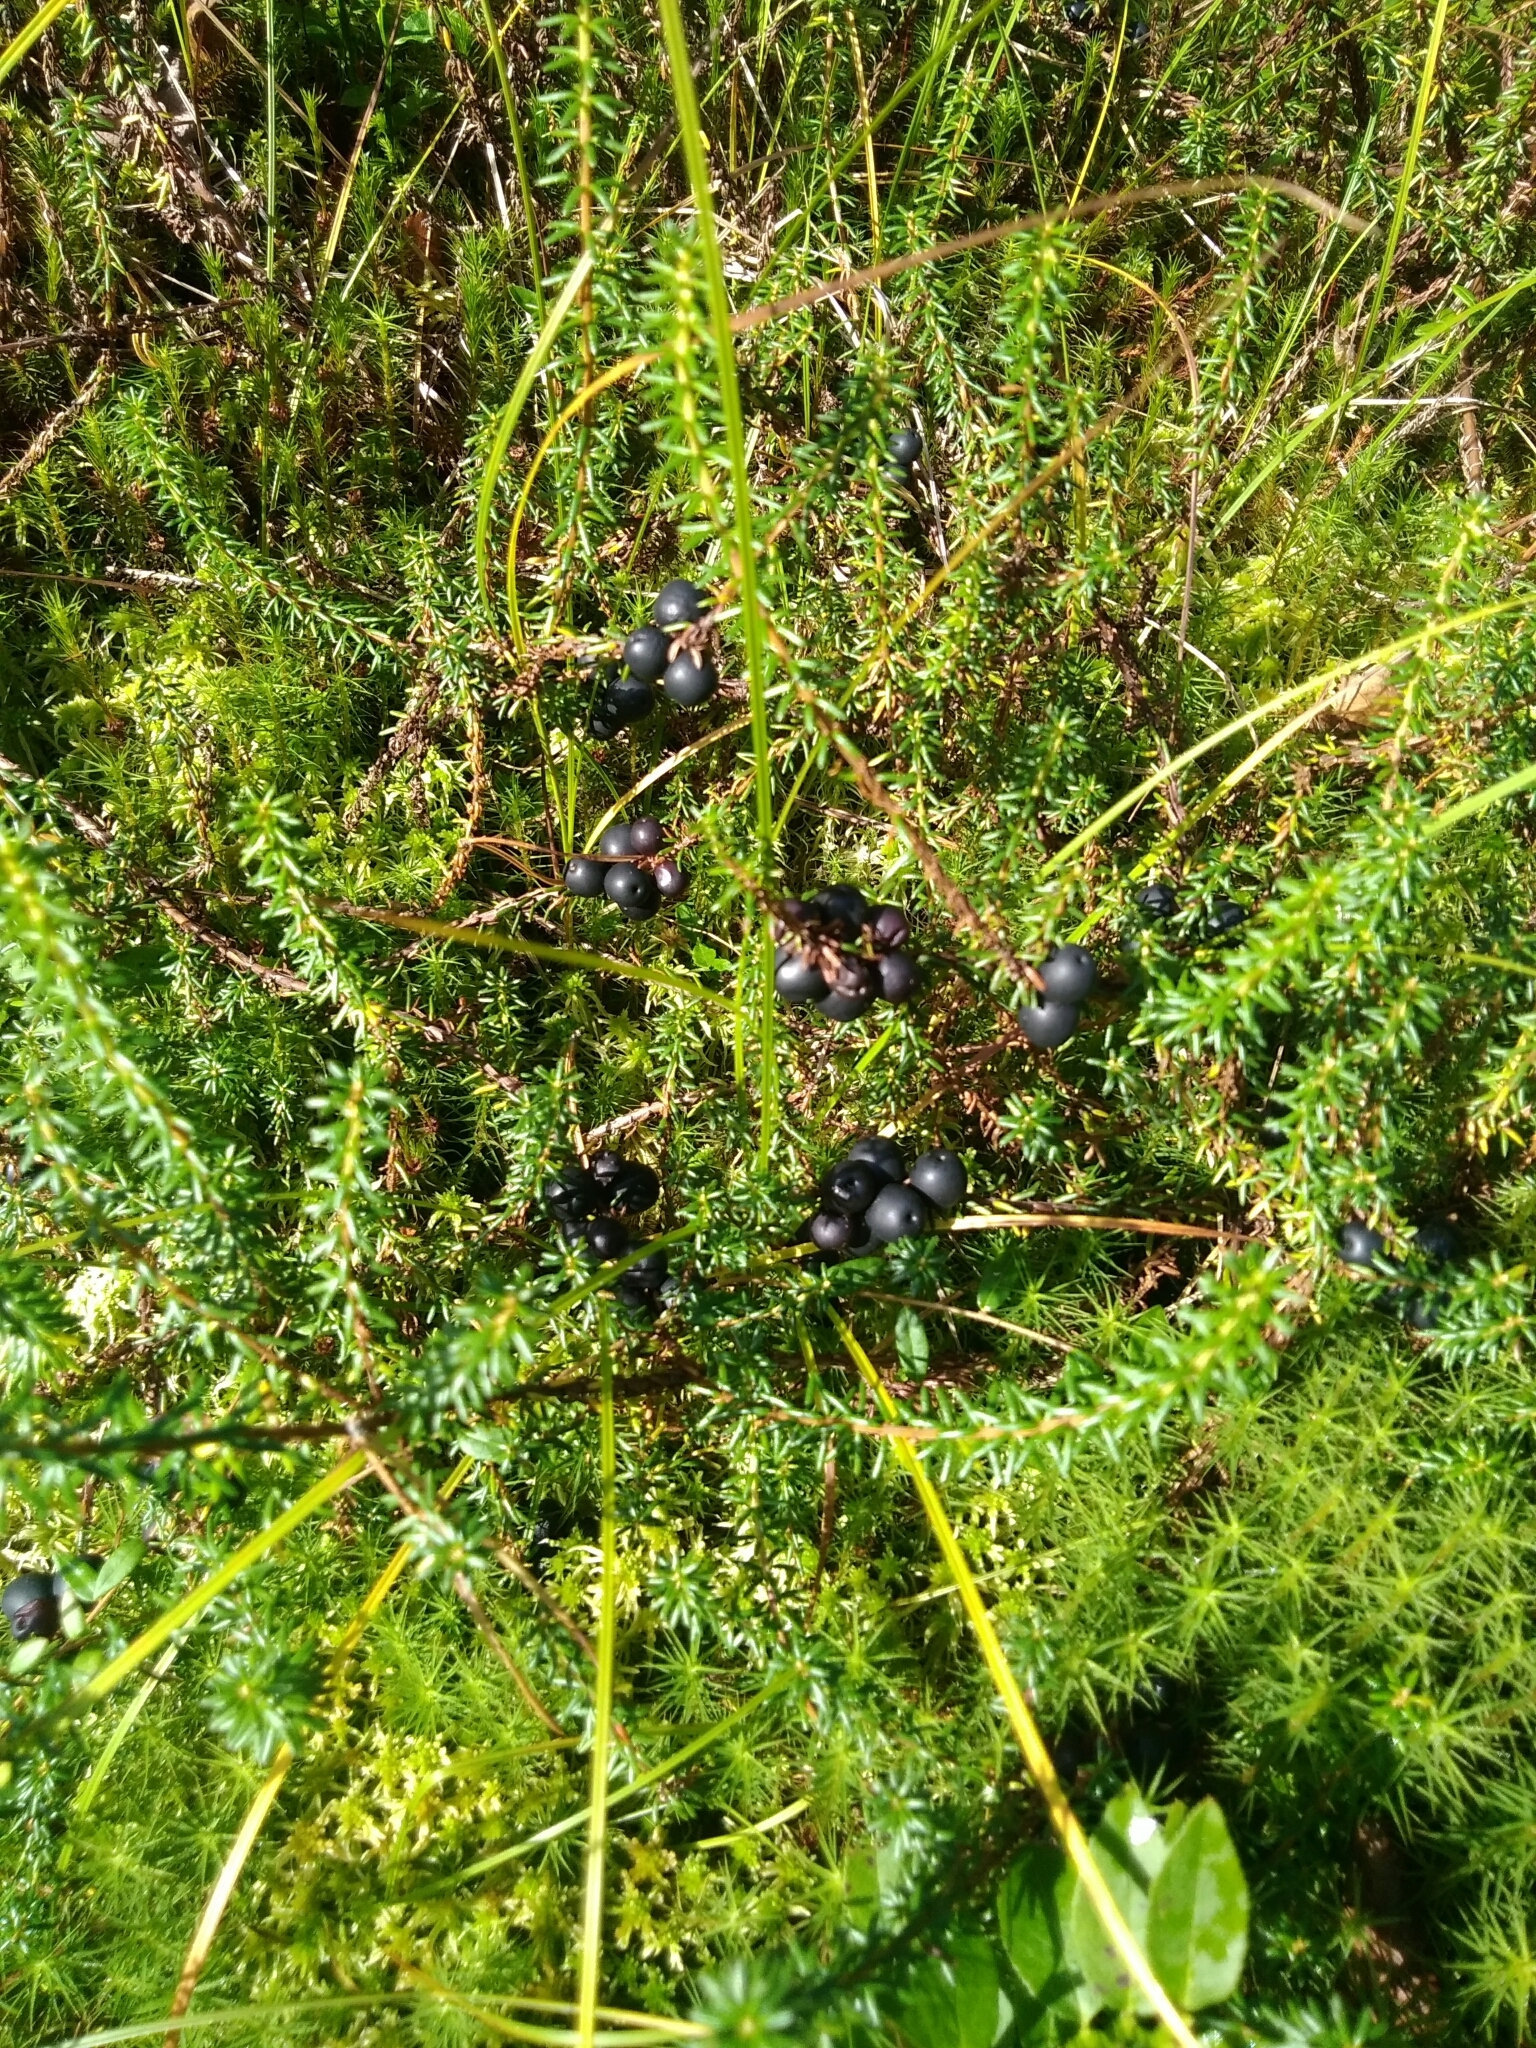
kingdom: Plantae
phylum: Tracheophyta
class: Magnoliopsida
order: Ericales
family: Ericaceae
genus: Empetrum
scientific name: Empetrum nigrum
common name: Black crowberry
